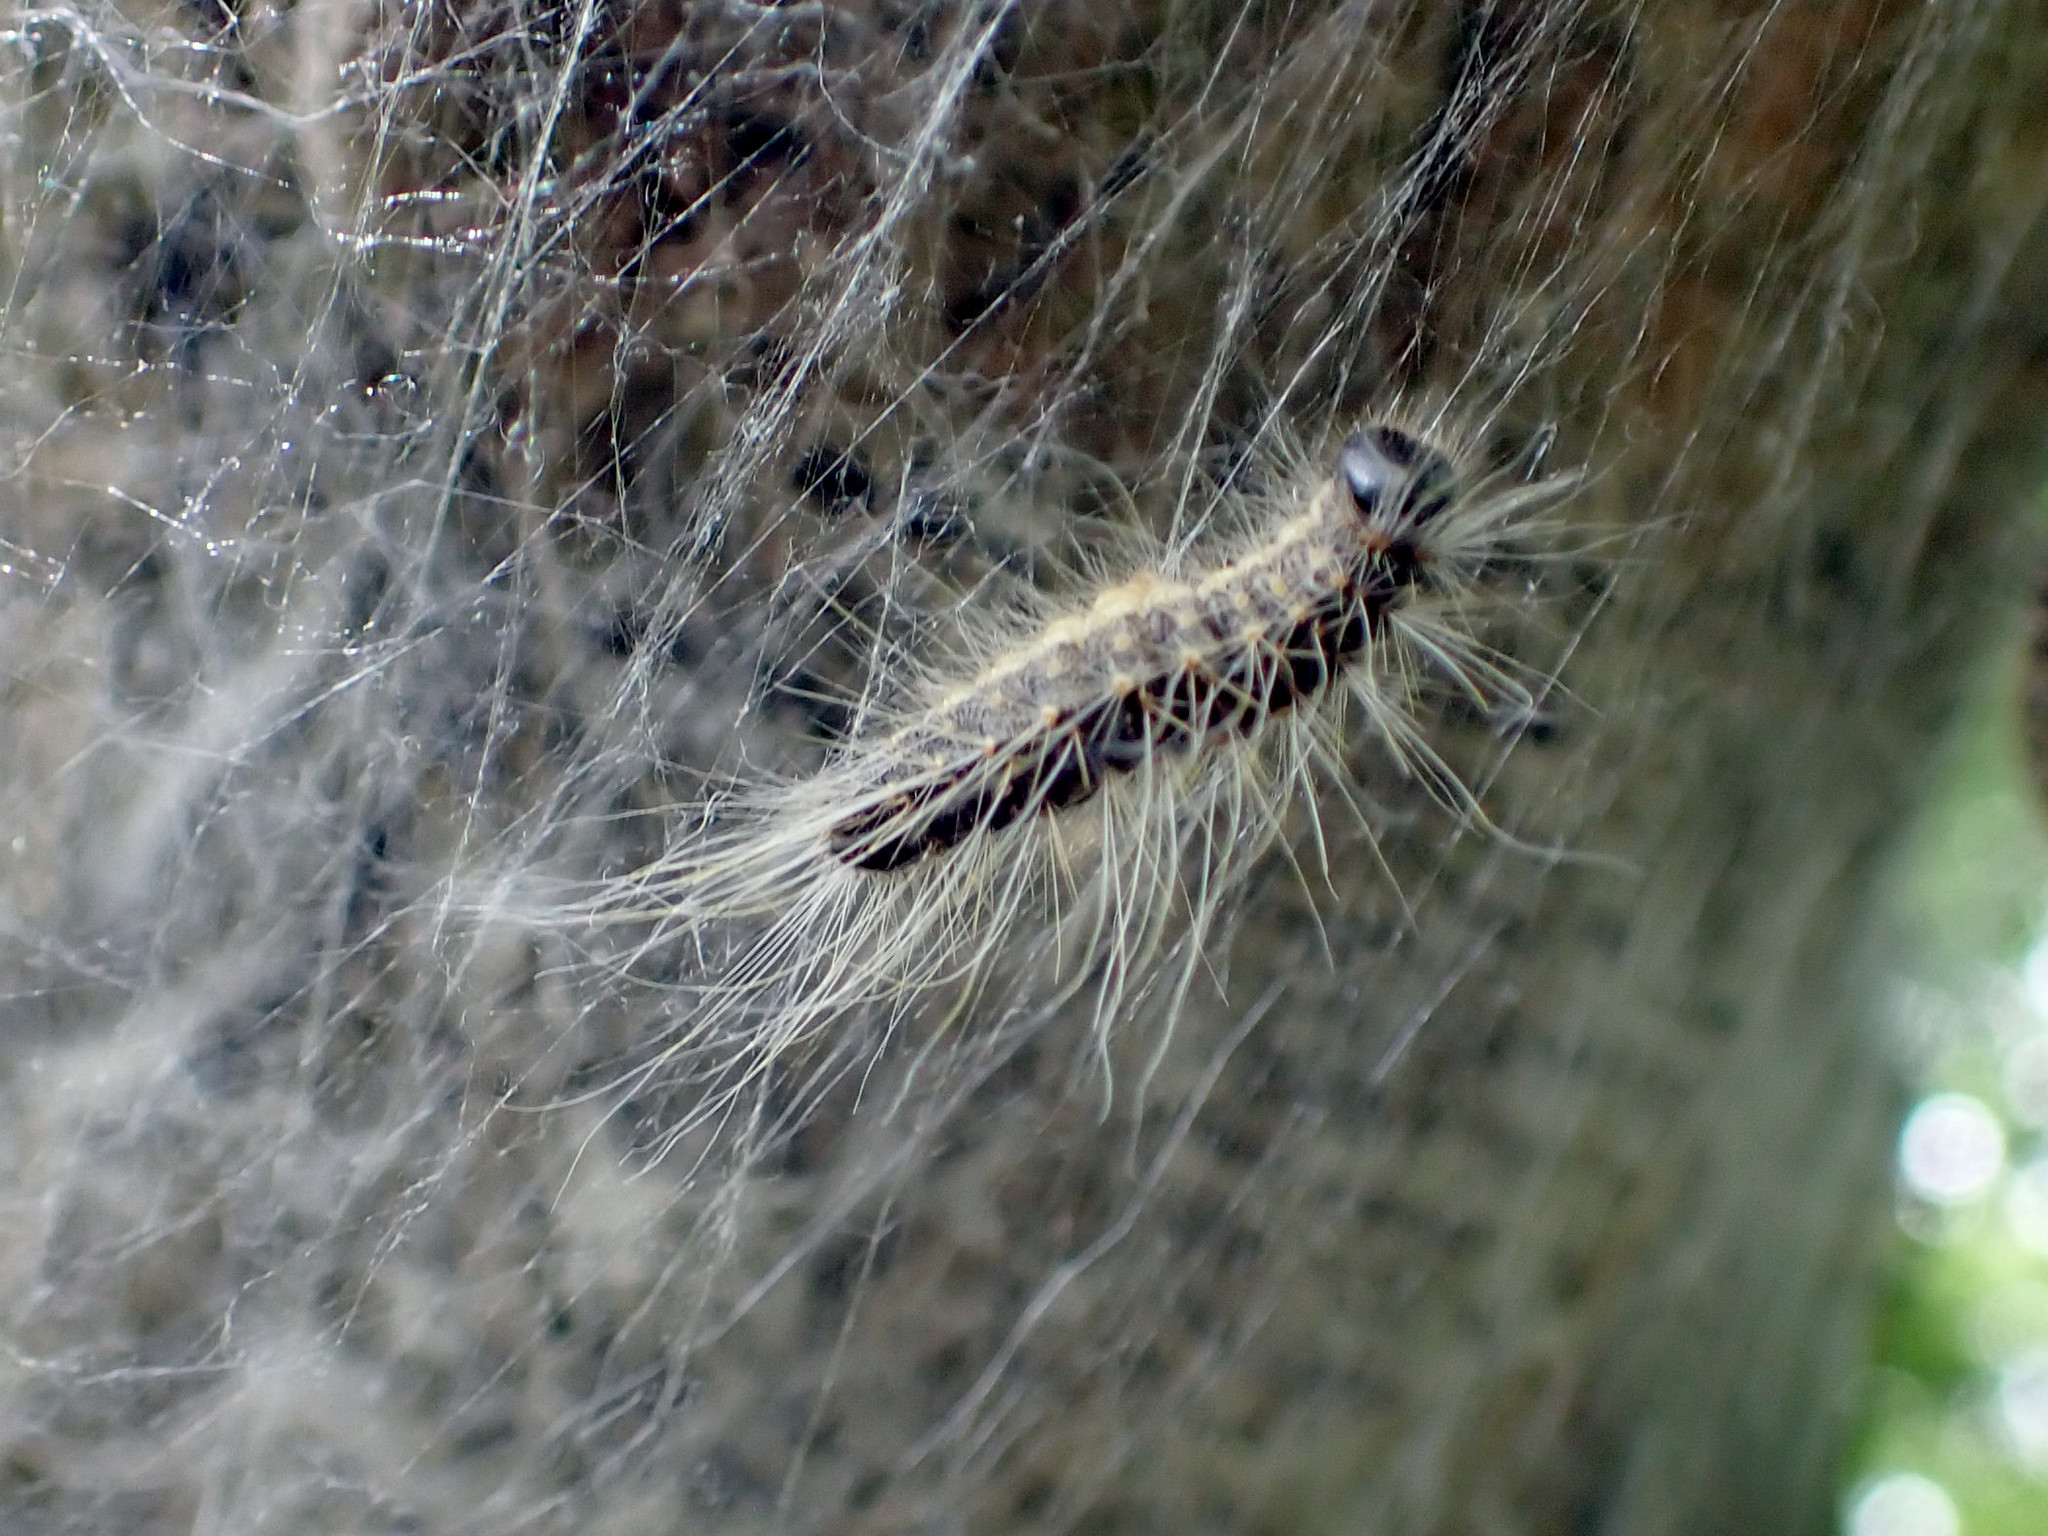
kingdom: Animalia
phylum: Arthropoda
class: Insecta
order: Lepidoptera
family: Notodontidae
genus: Thaumetopoea
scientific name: Thaumetopoea processionea
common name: Oak processionea
